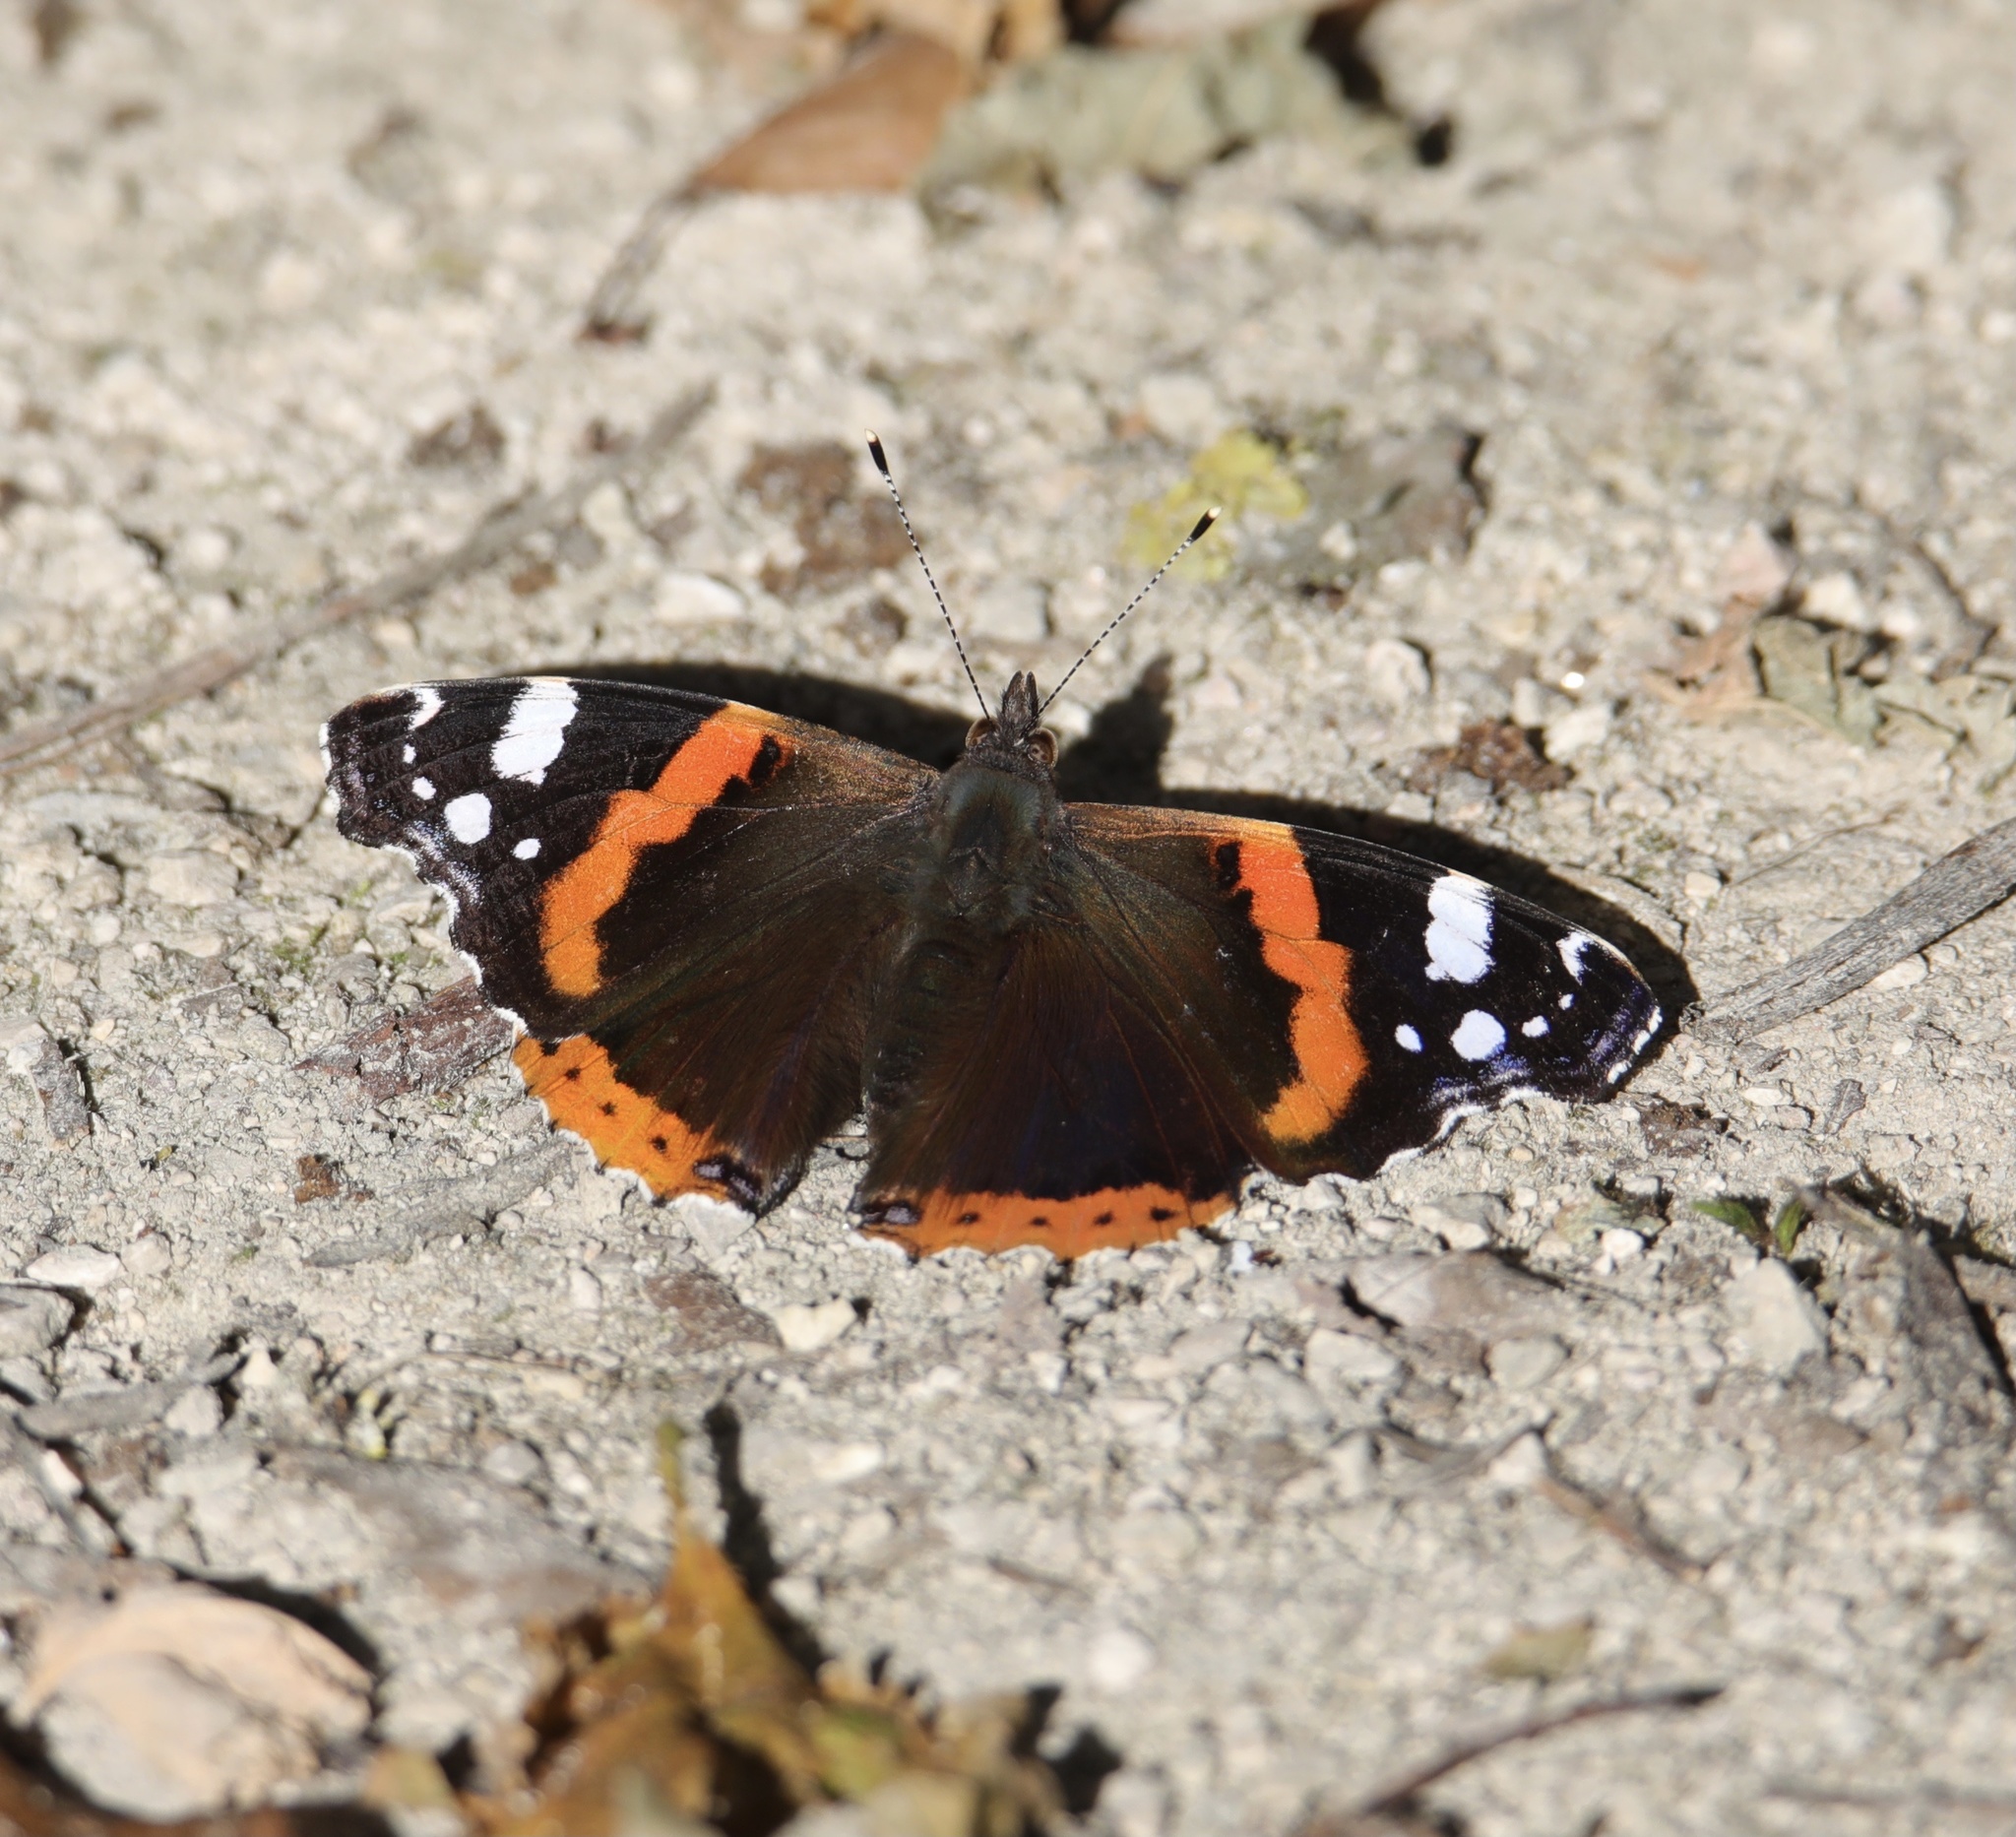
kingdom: Animalia
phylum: Arthropoda
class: Insecta
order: Lepidoptera
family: Nymphalidae
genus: Vanessa
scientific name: Vanessa atalanta
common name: Red admiral
